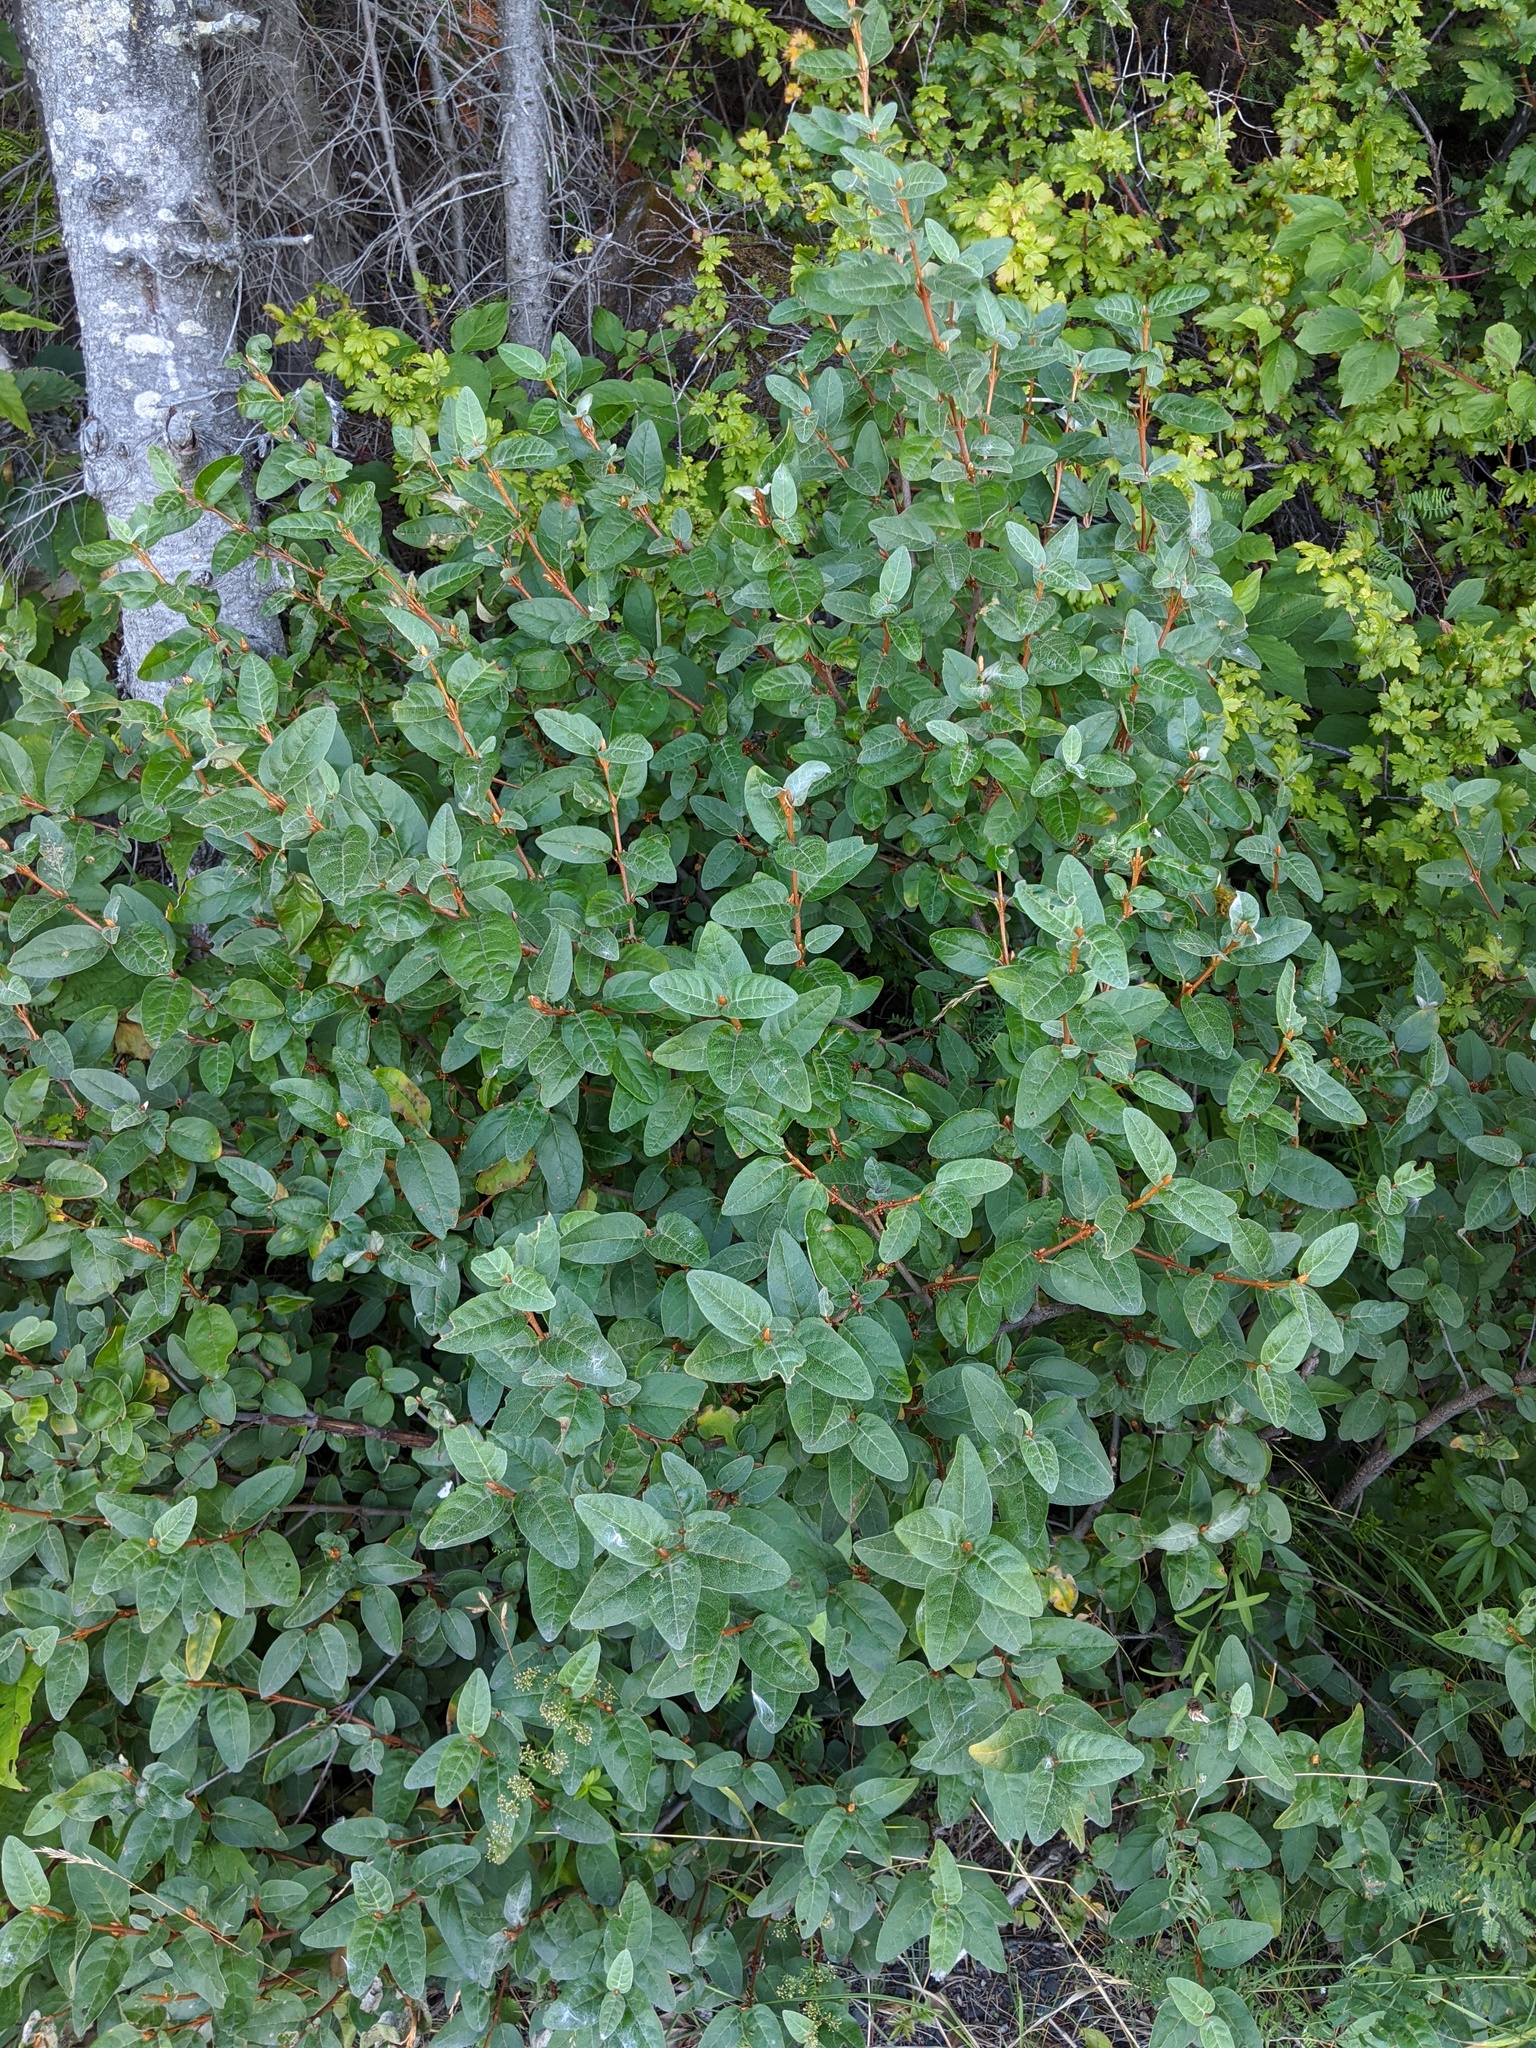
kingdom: Plantae
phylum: Tracheophyta
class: Magnoliopsida
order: Rosales
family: Elaeagnaceae
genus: Shepherdia
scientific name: Shepherdia canadensis
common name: Soapberry
